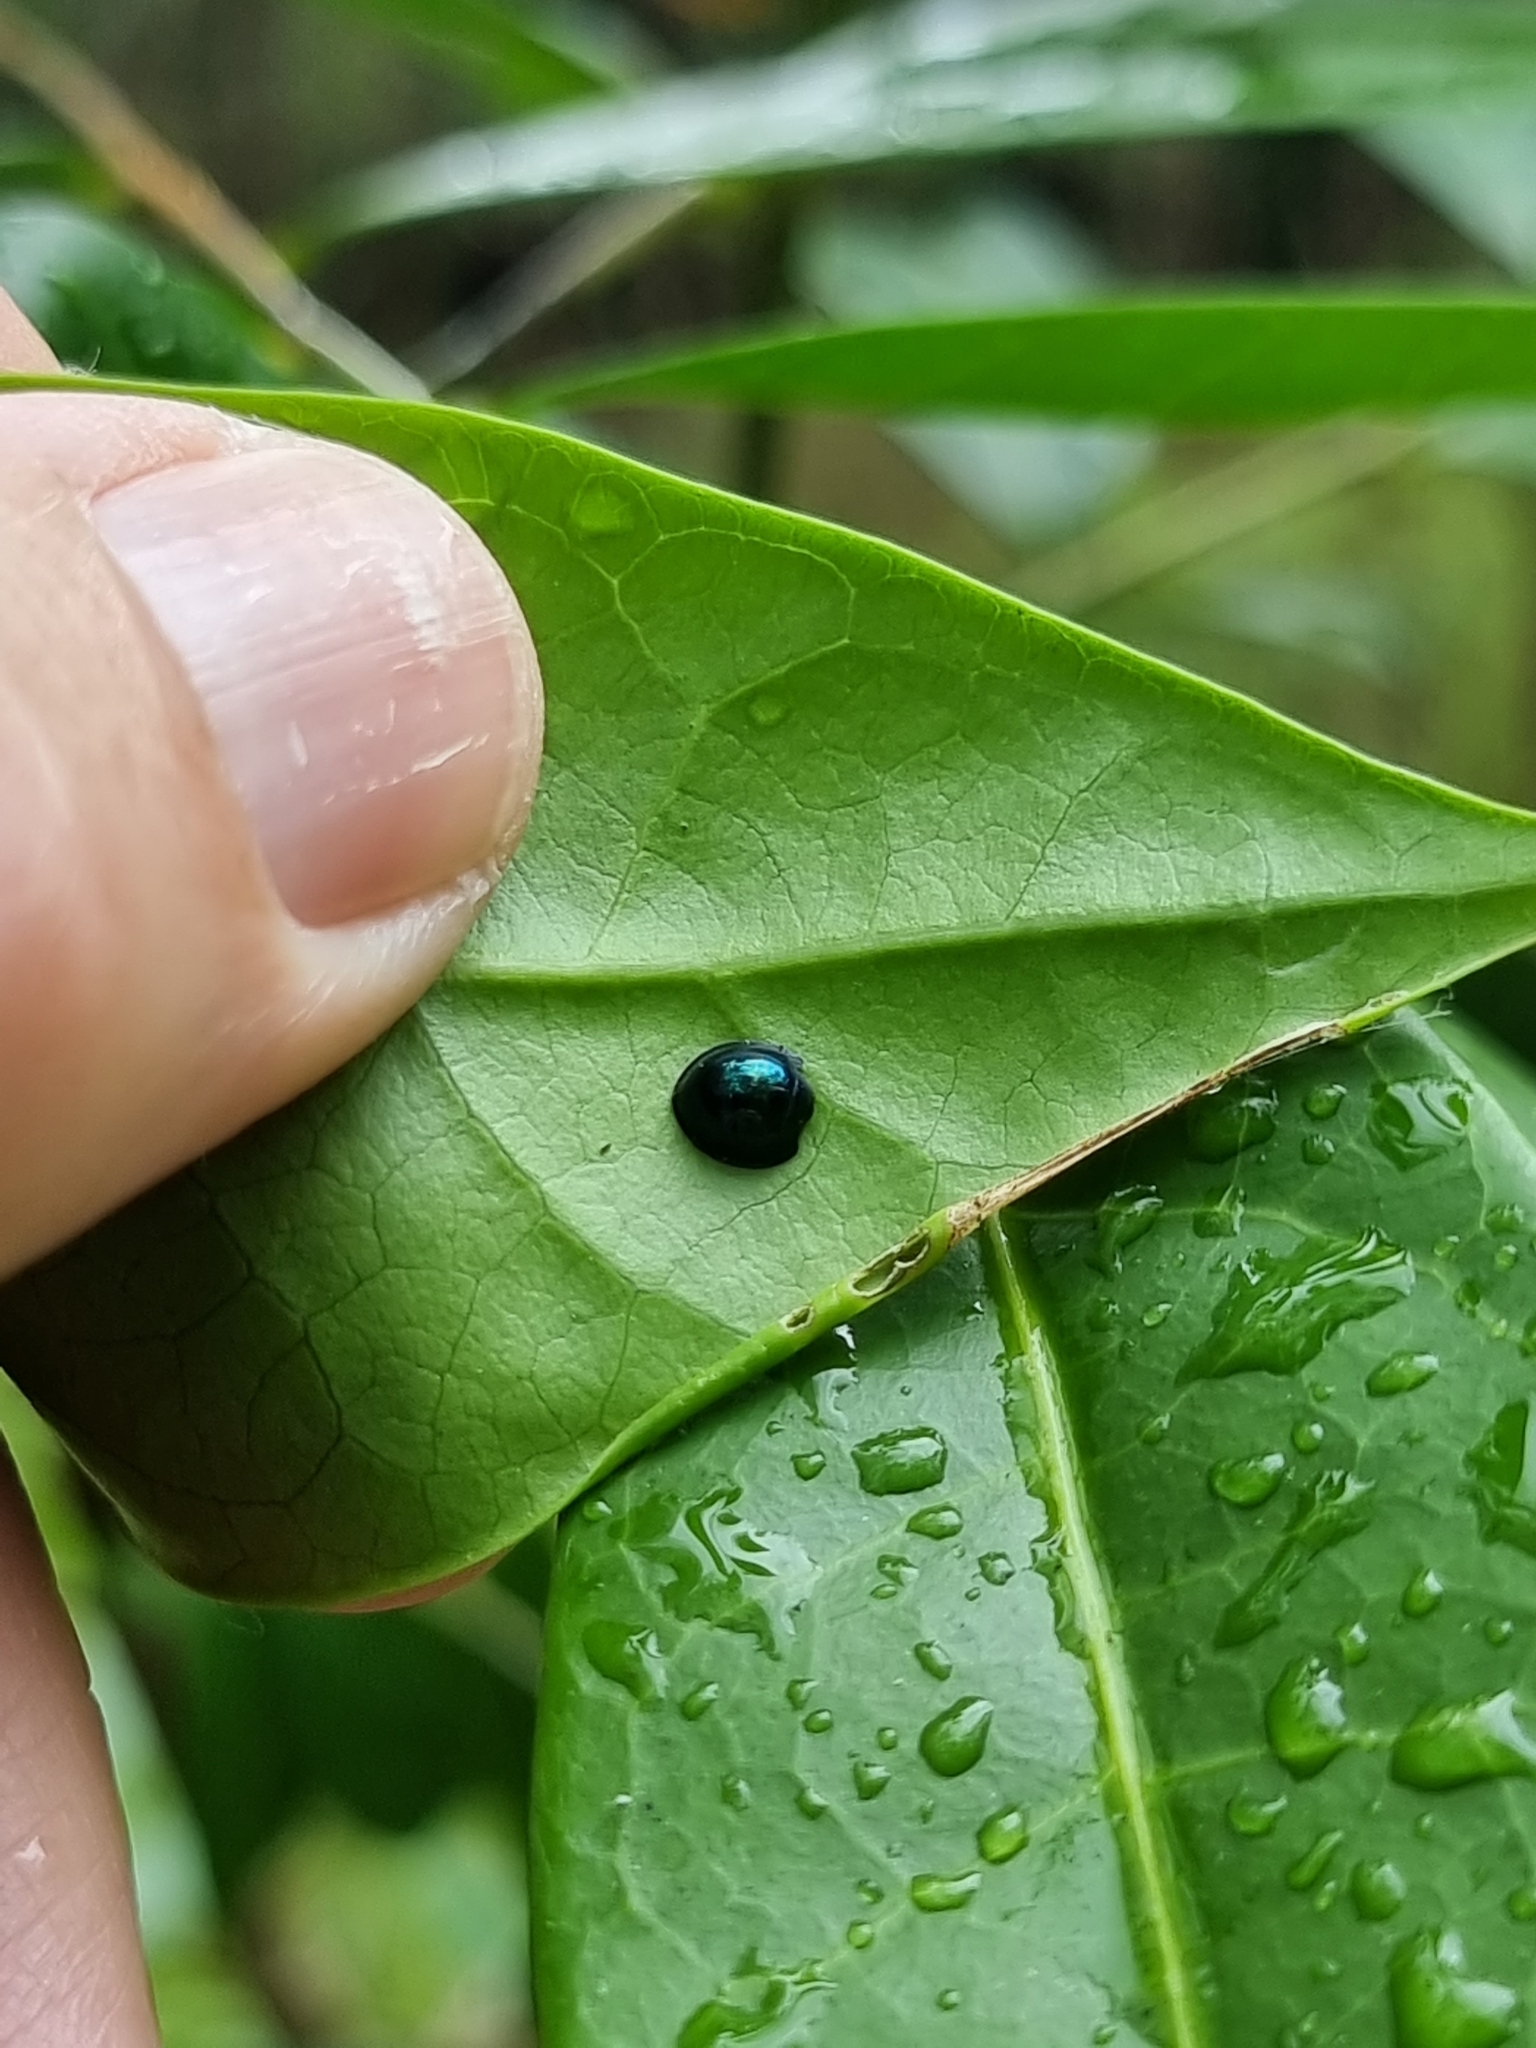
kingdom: Animalia
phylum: Arthropoda
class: Insecta
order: Coleoptera
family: Coccinellidae
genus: Halmus
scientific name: Halmus chalybeus
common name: Steel blue ladybird beetle
